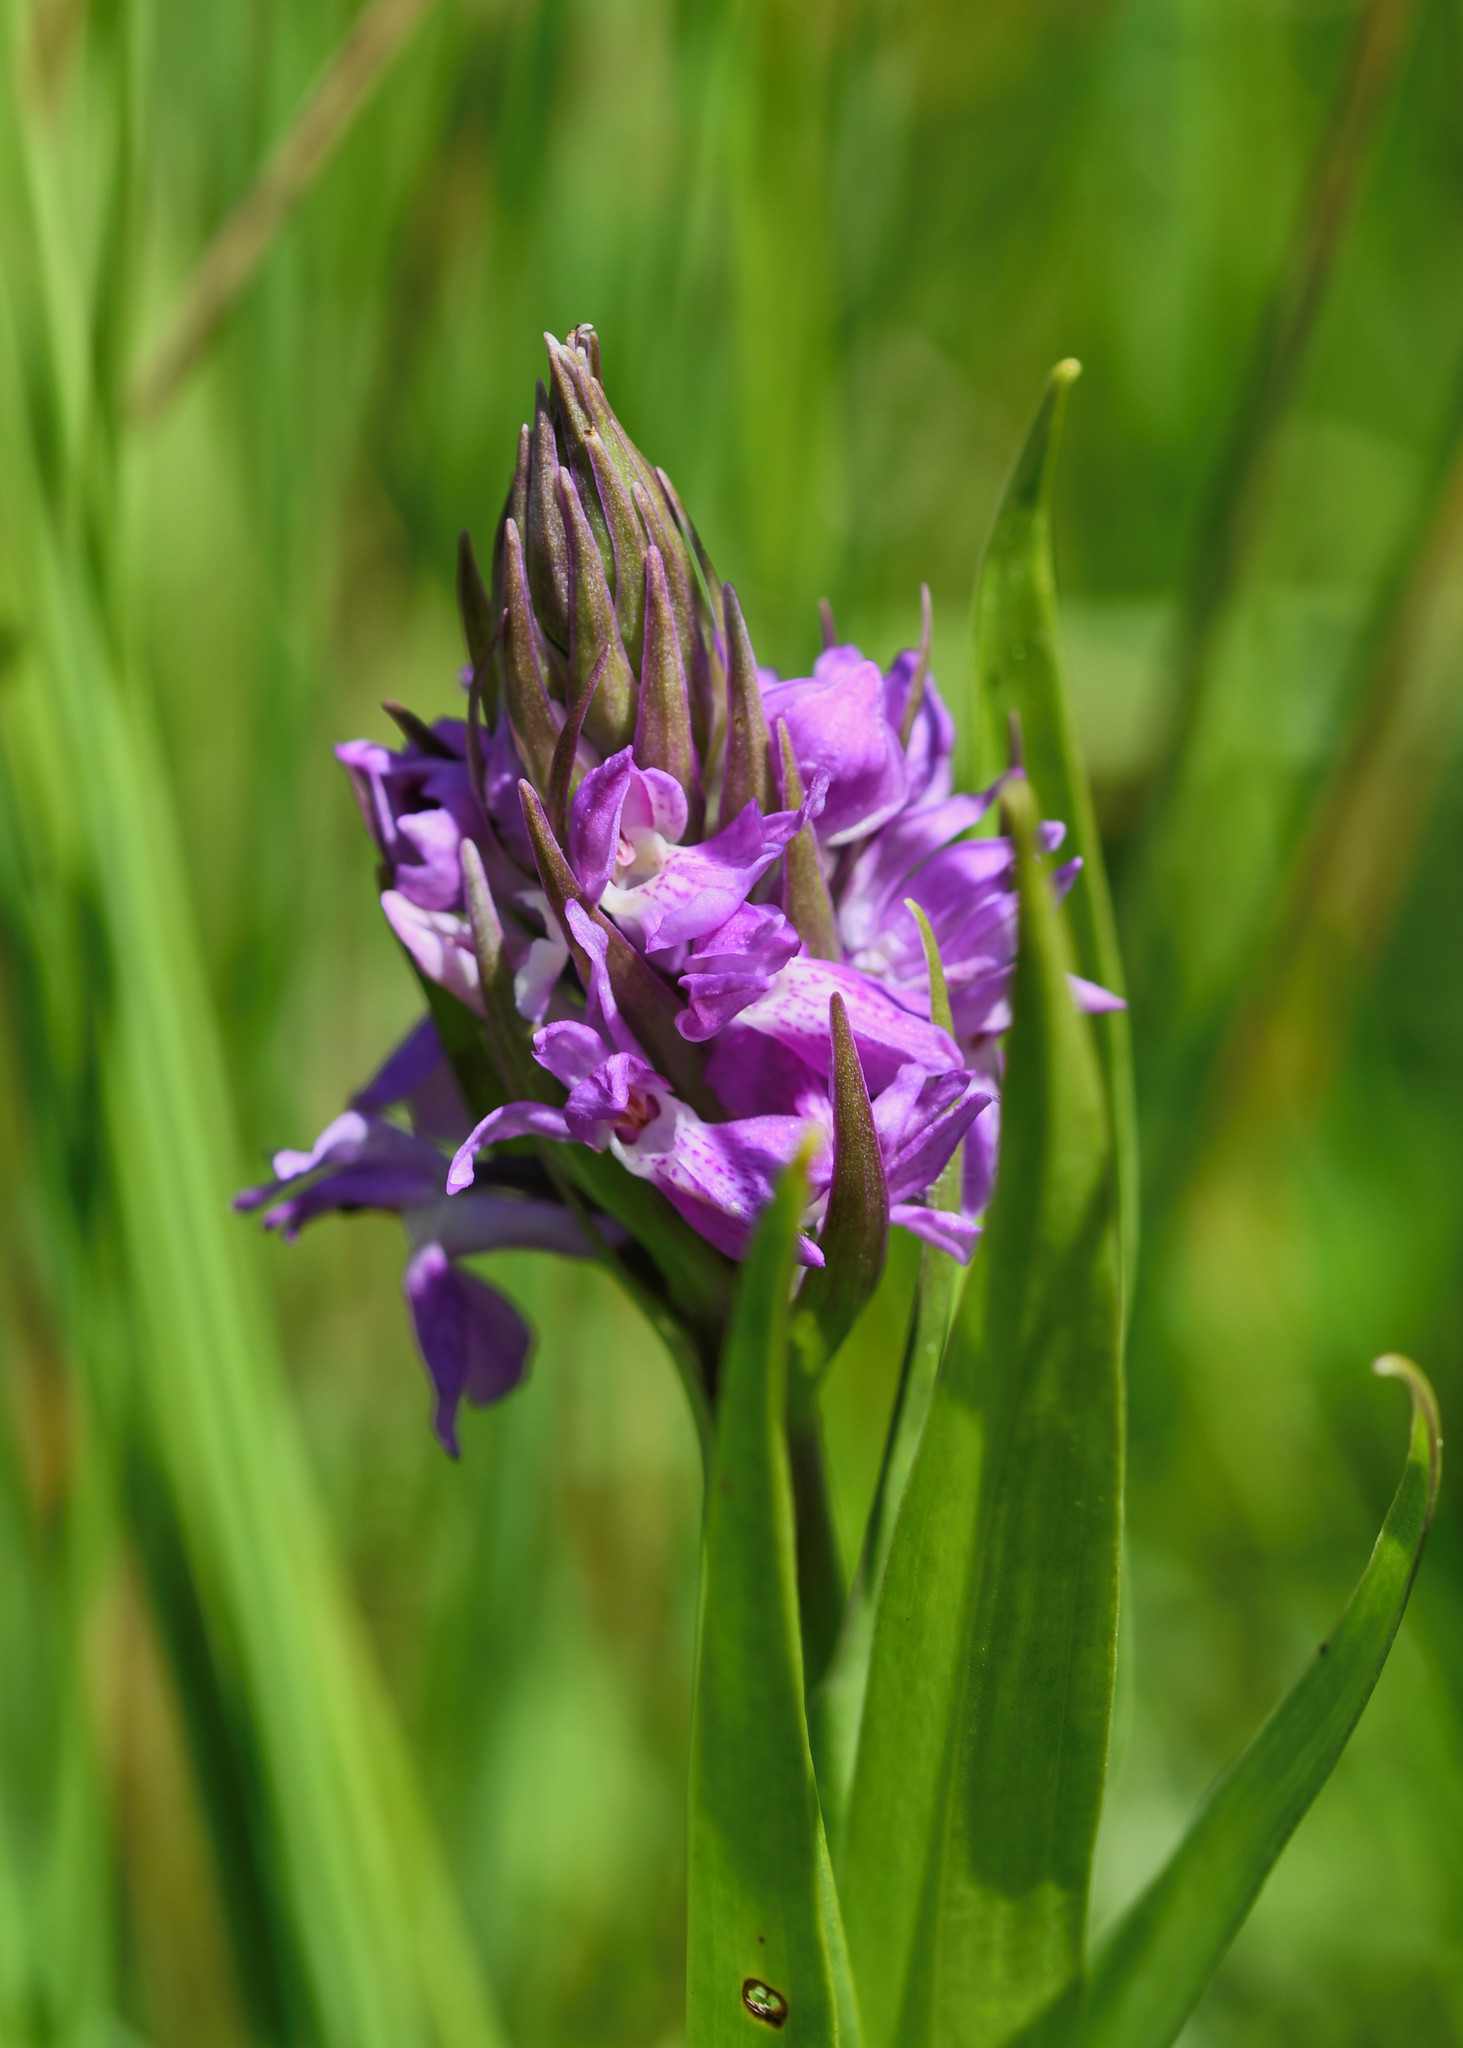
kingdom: Plantae
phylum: Tracheophyta
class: Liliopsida
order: Asparagales
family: Orchidaceae
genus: Dactylorhiza
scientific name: Dactylorhiza majalis
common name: Marsh orchid
